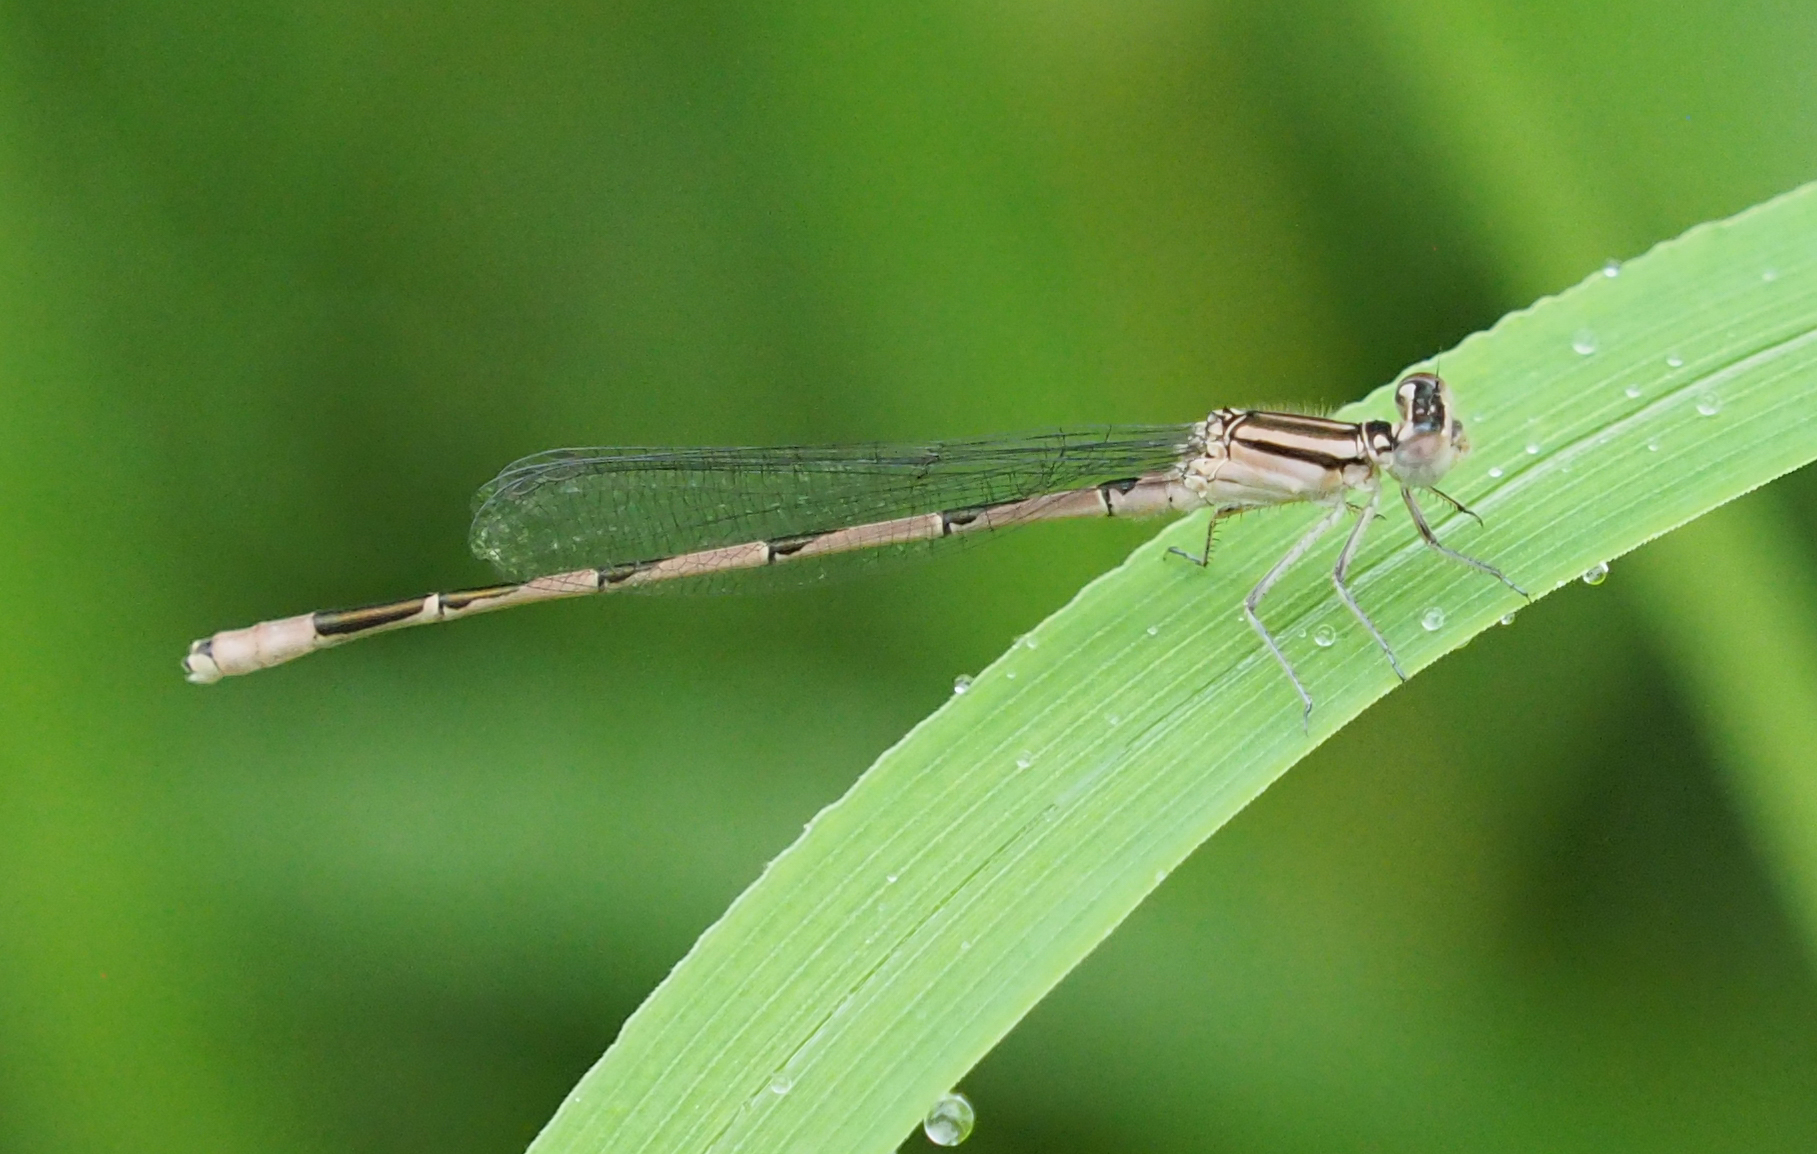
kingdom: Animalia
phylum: Arthropoda
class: Insecta
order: Odonata
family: Coenagrionidae
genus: Enallagma
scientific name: Enallagma durum
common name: Big bluet
